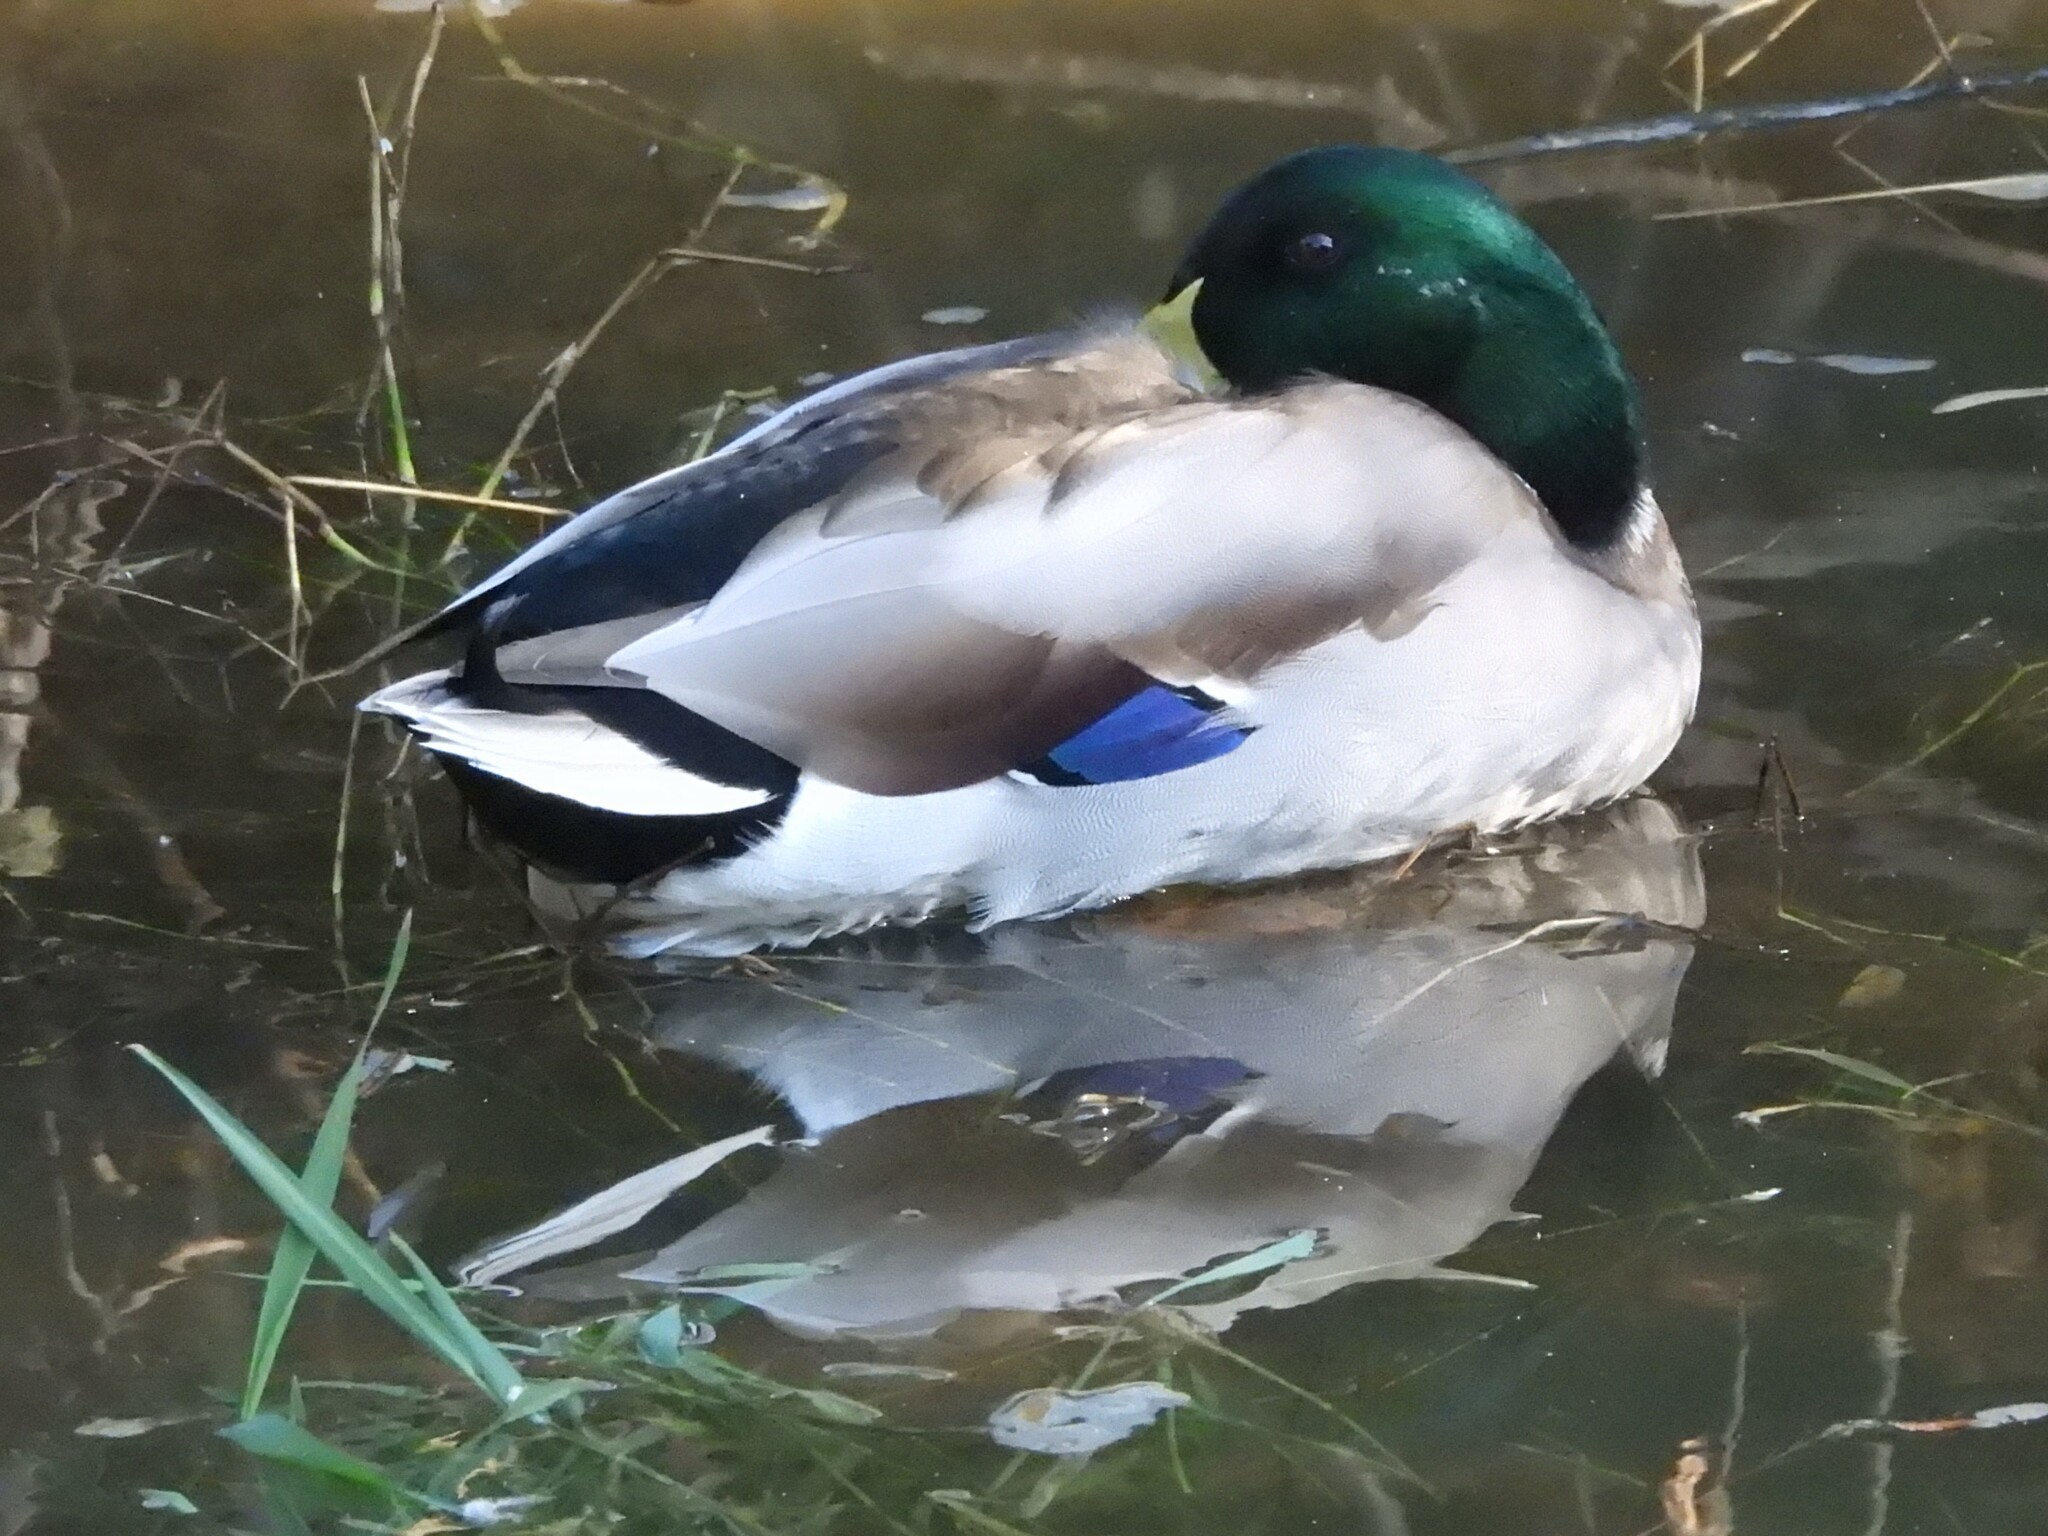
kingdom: Animalia
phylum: Chordata
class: Aves
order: Anseriformes
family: Anatidae
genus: Anas
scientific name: Anas platyrhynchos
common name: Mallard
